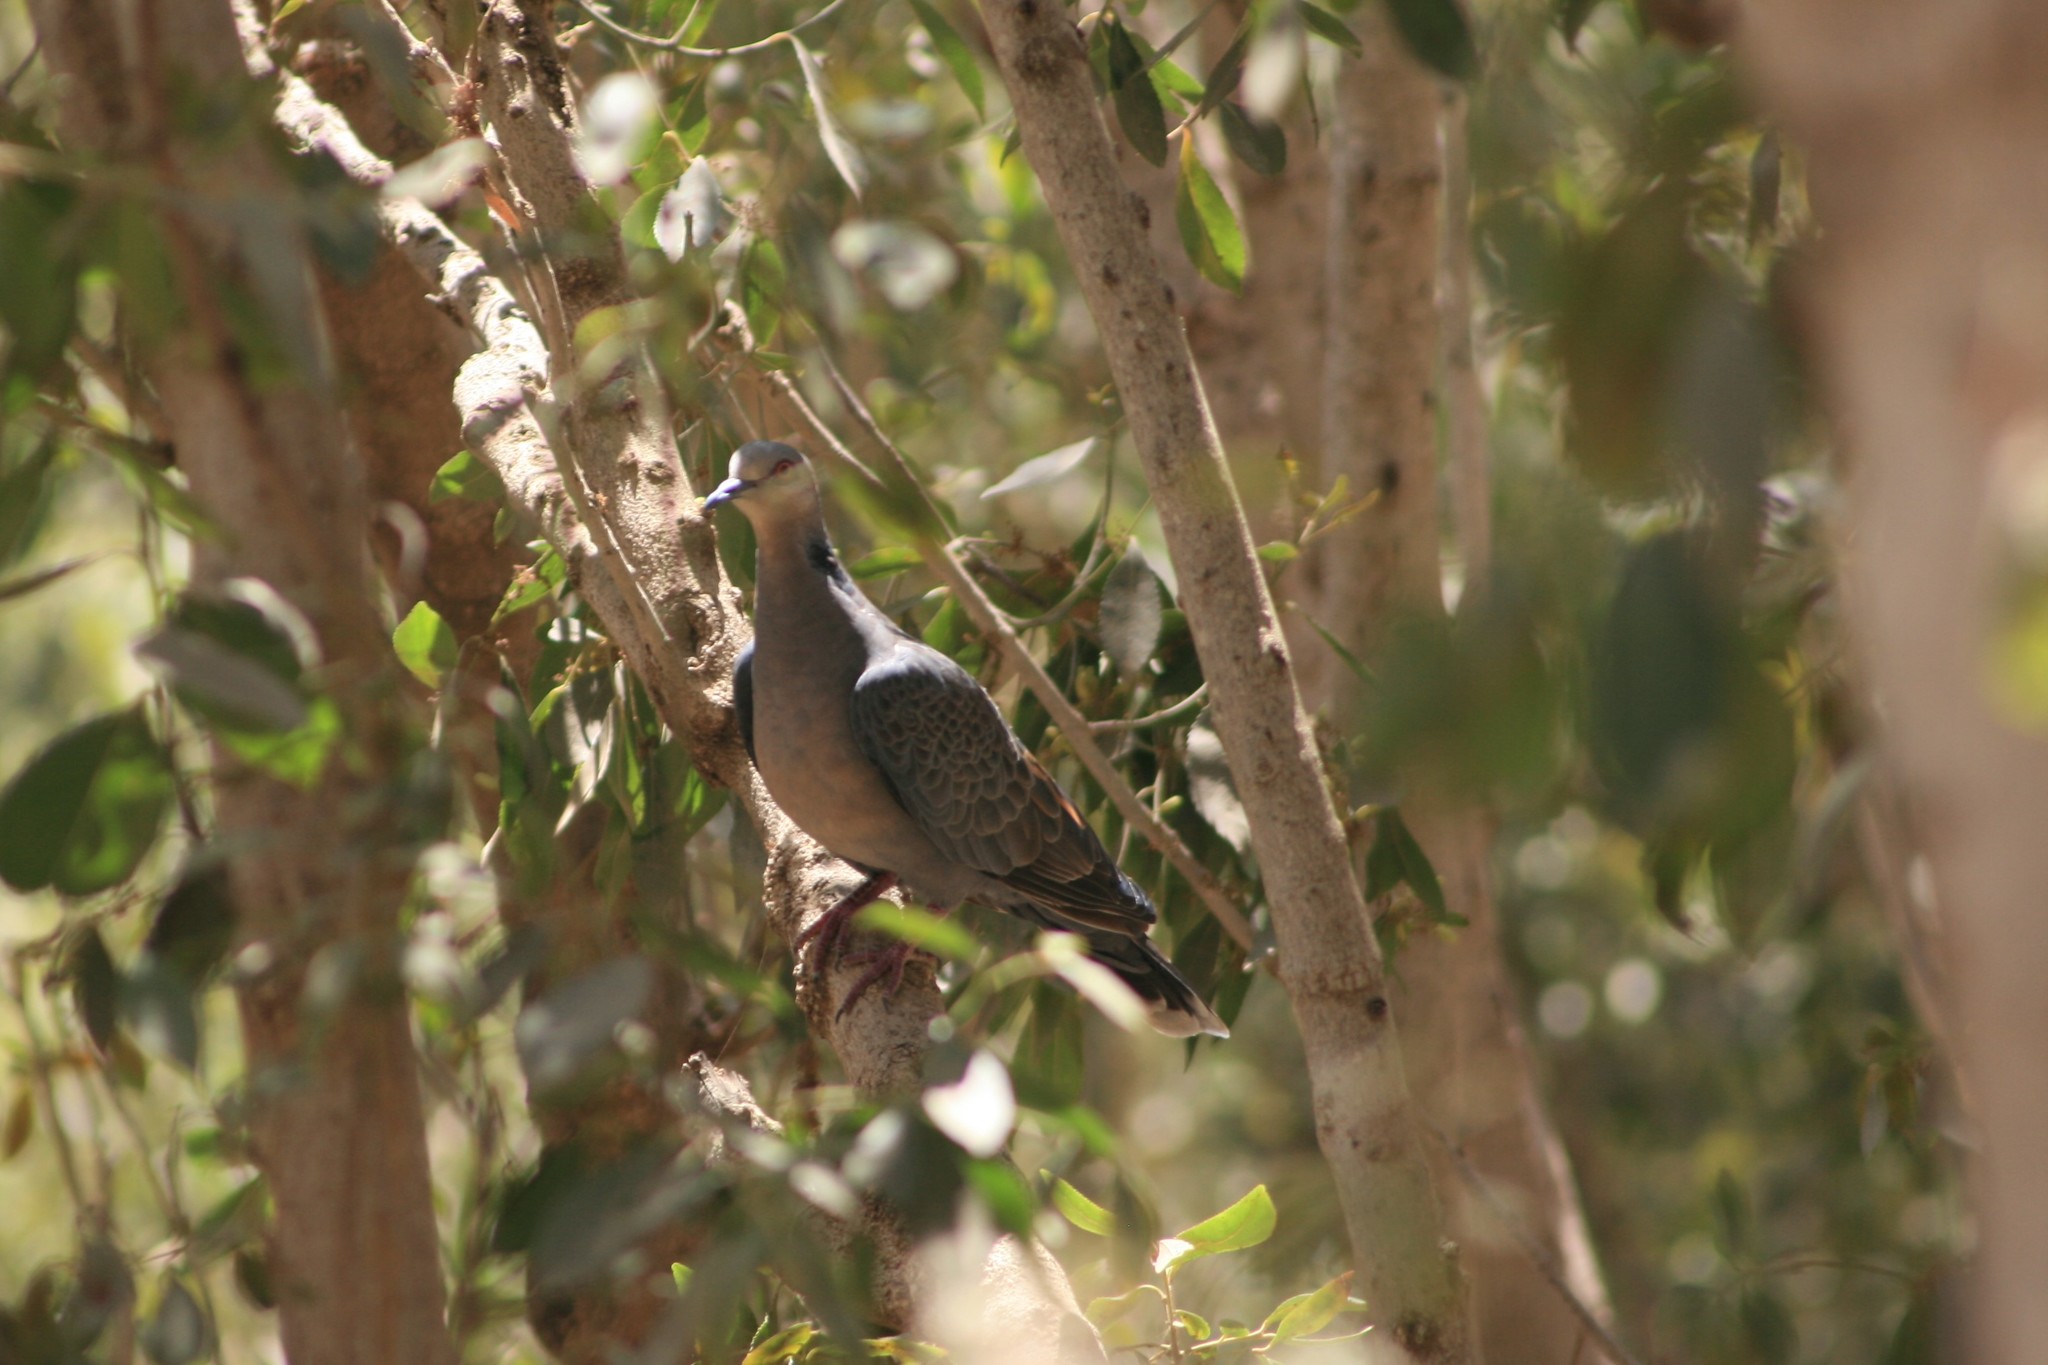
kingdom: Animalia
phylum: Chordata
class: Aves
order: Columbiformes
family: Columbidae
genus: Streptopelia
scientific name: Streptopelia lugens
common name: Dusky turtle dove
